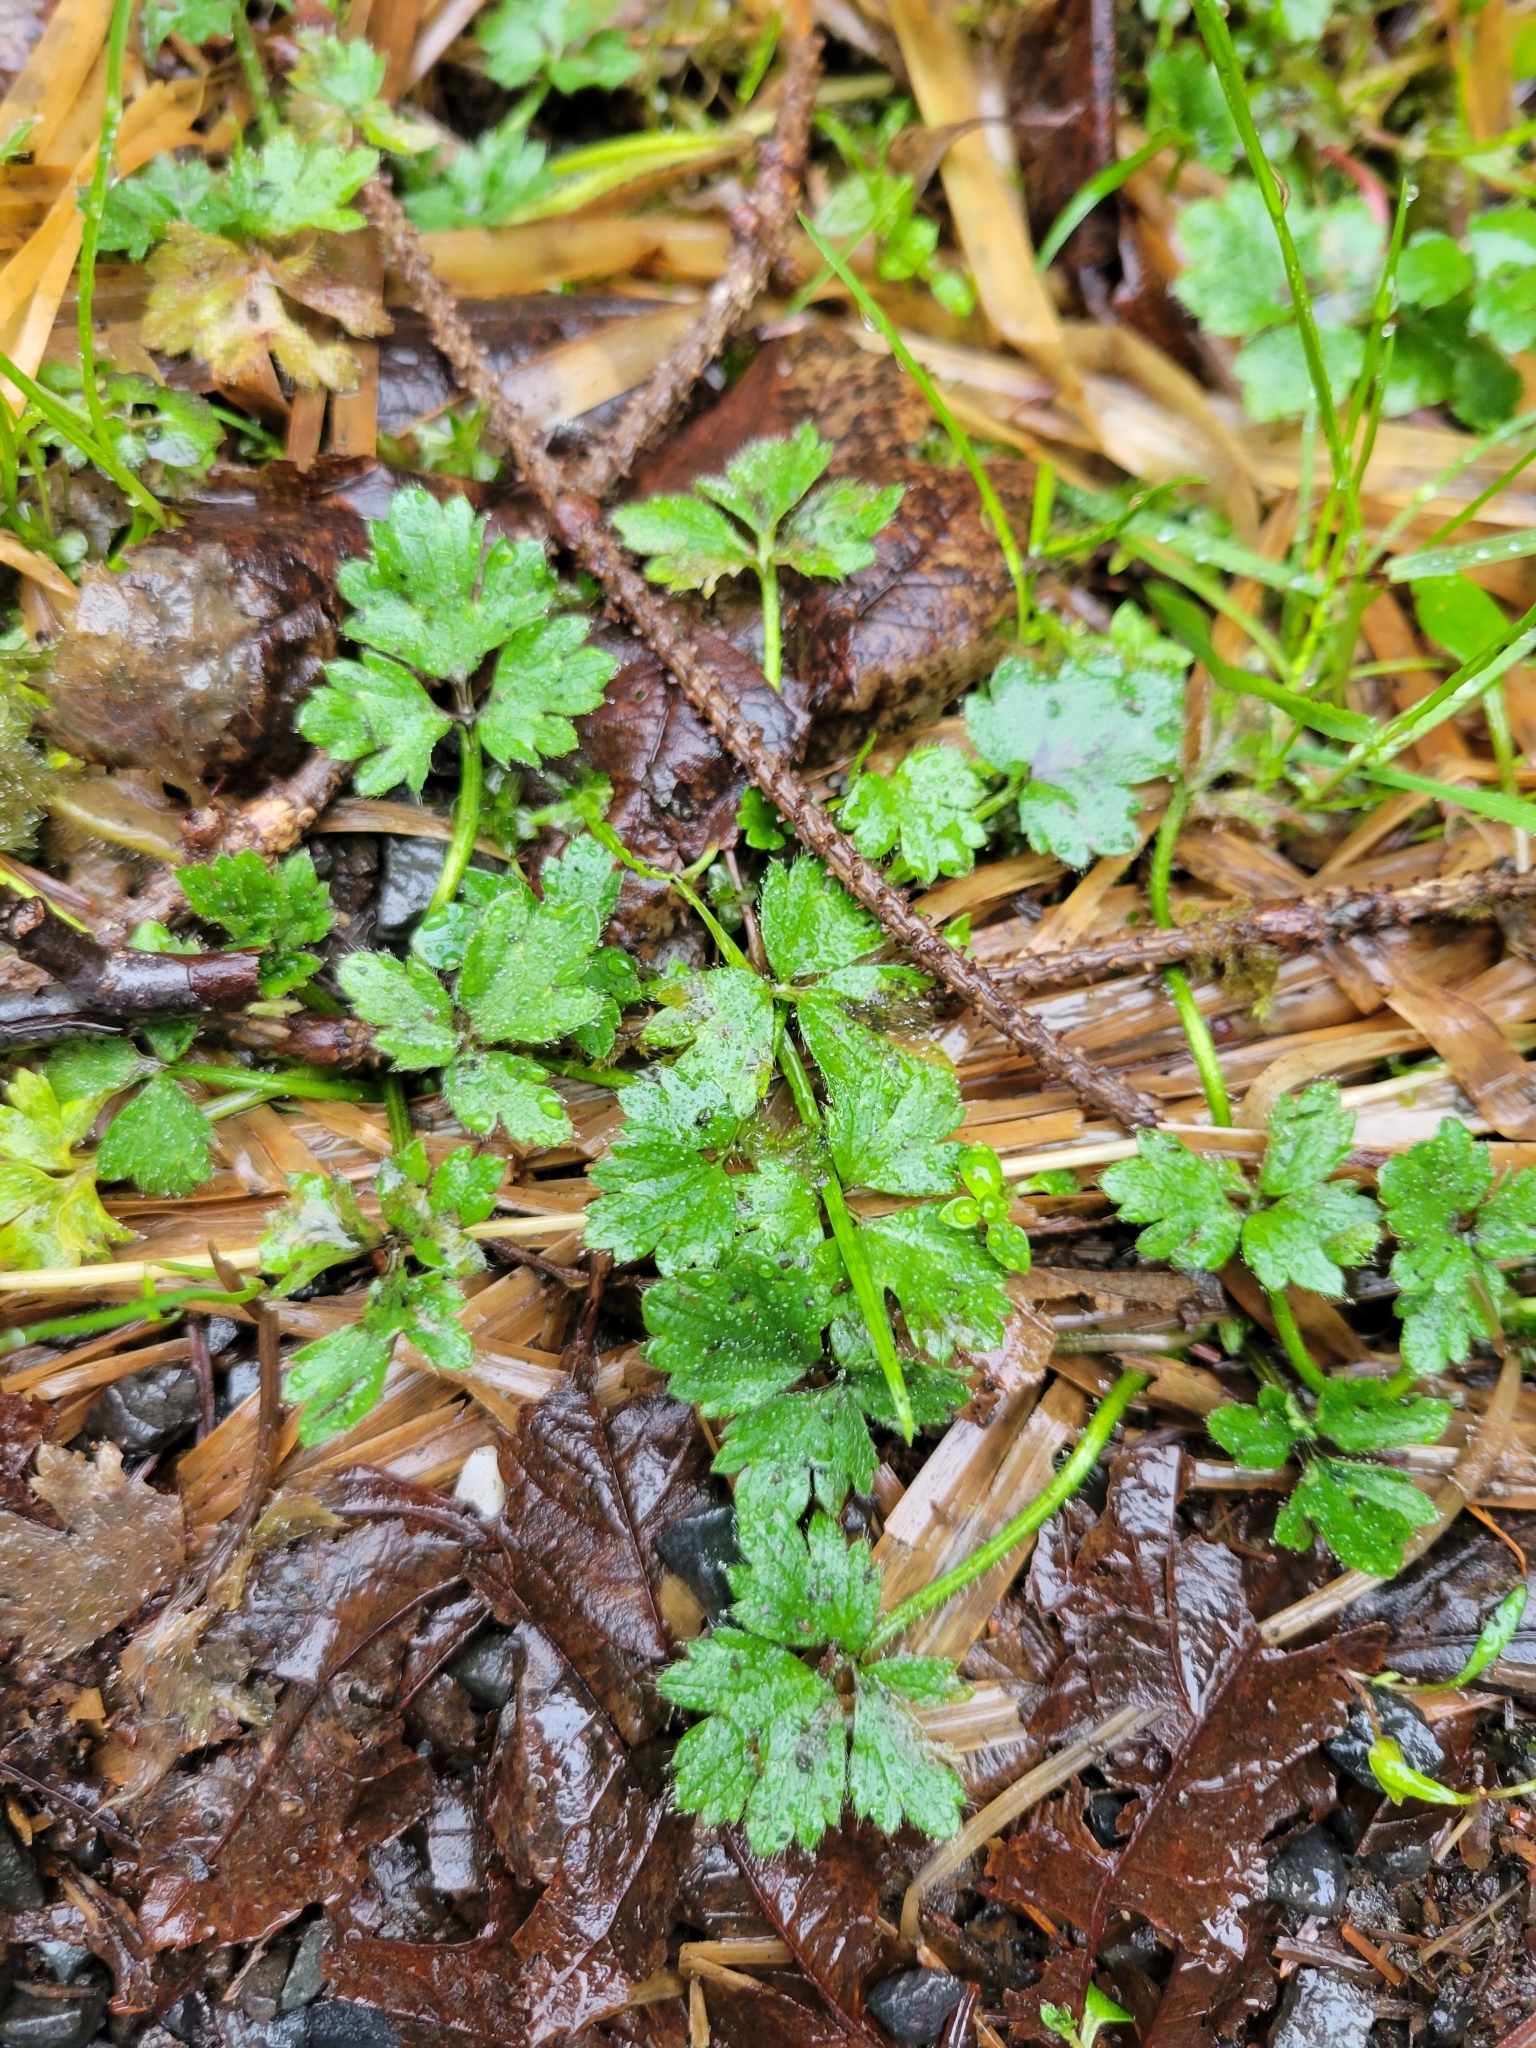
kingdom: Plantae
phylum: Tracheophyta
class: Magnoliopsida
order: Ranunculales
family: Ranunculaceae
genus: Ranunculus
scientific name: Ranunculus repens
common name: Creeping buttercup
